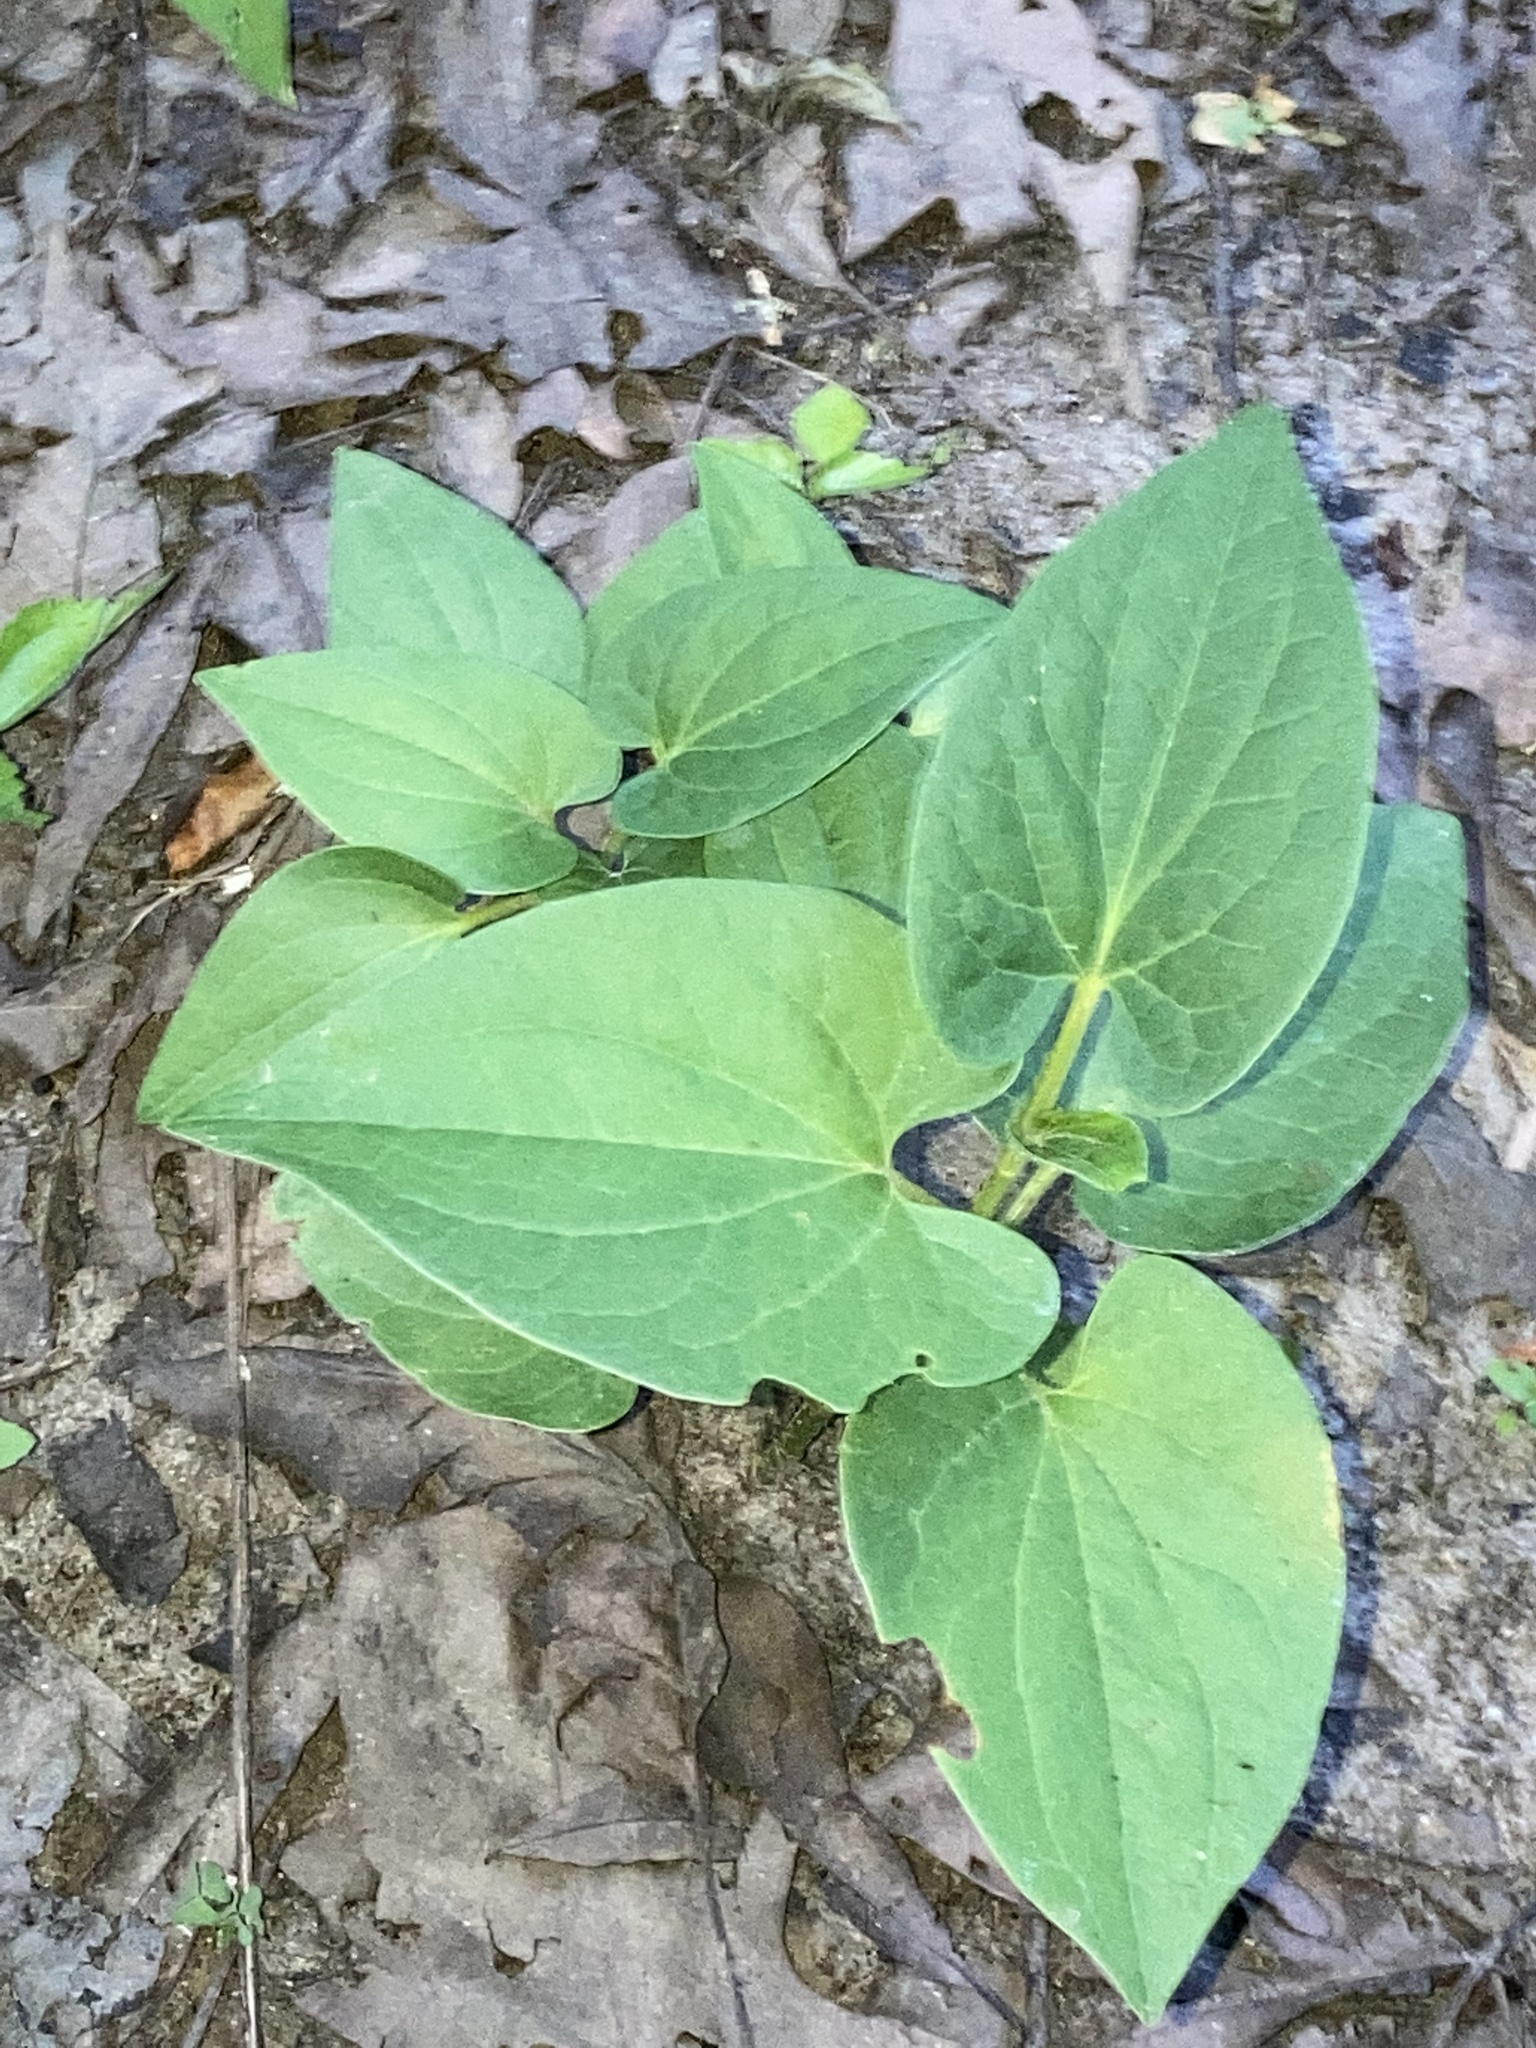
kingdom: Plantae
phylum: Tracheophyta
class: Magnoliopsida
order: Piperales
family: Saururaceae
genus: Saururus
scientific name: Saururus cernuus
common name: Lizard's-tail
